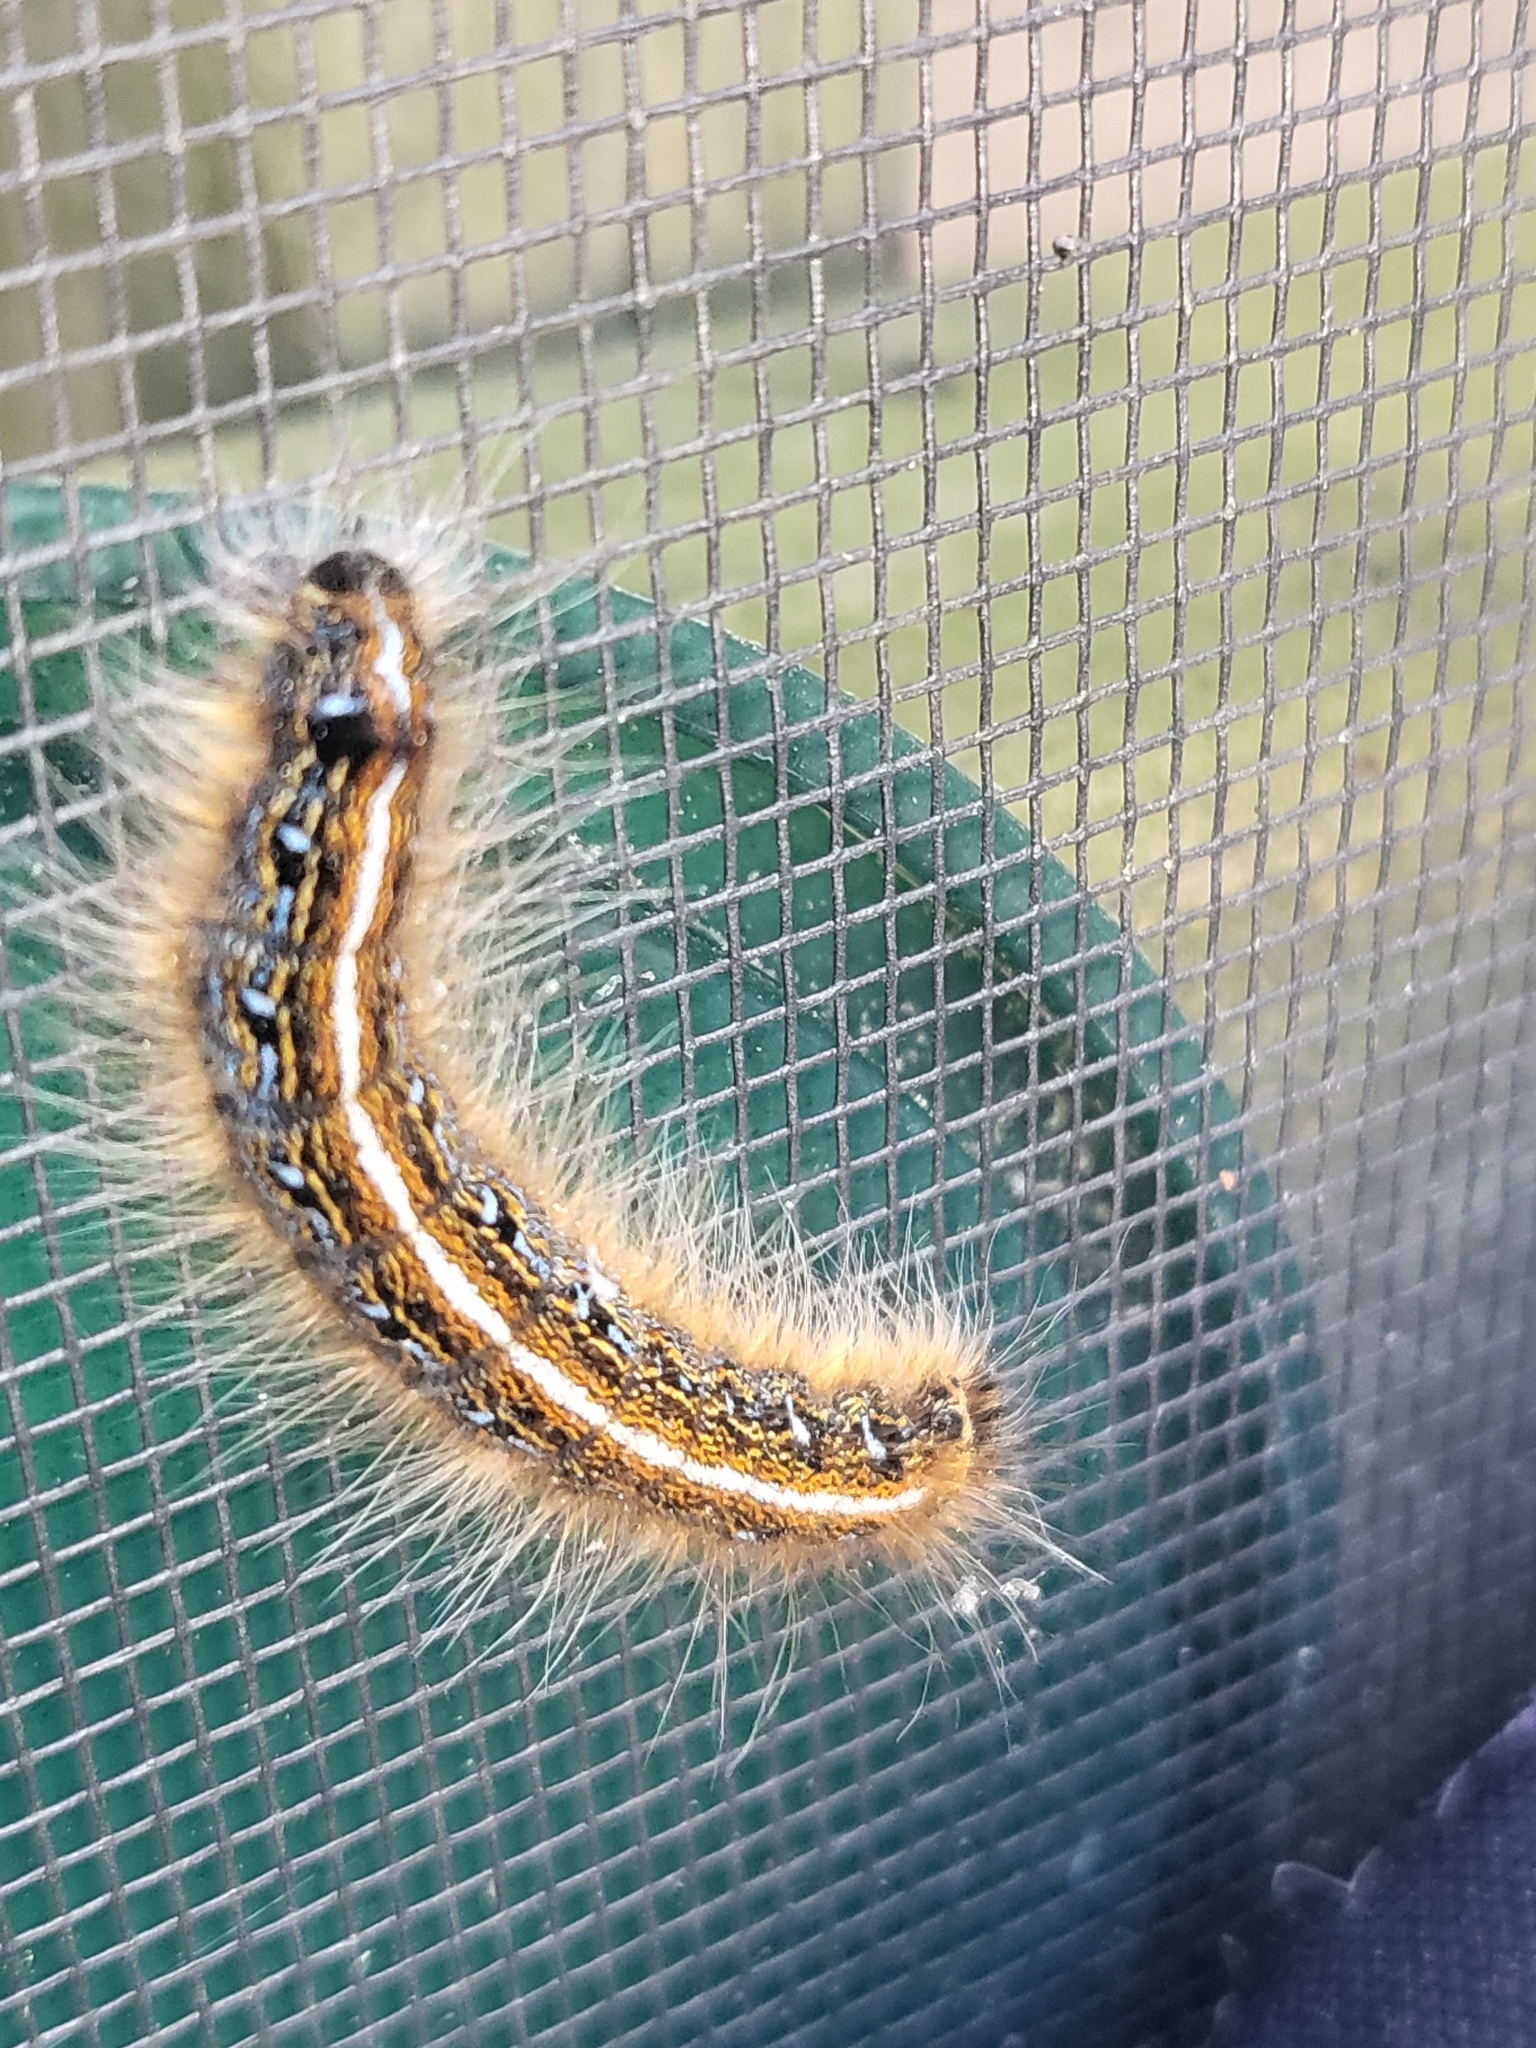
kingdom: Animalia
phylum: Arthropoda
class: Insecta
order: Lepidoptera
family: Lasiocampidae
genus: Malacosoma
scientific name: Malacosoma americana
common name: Eastern tent caterpillar moth
